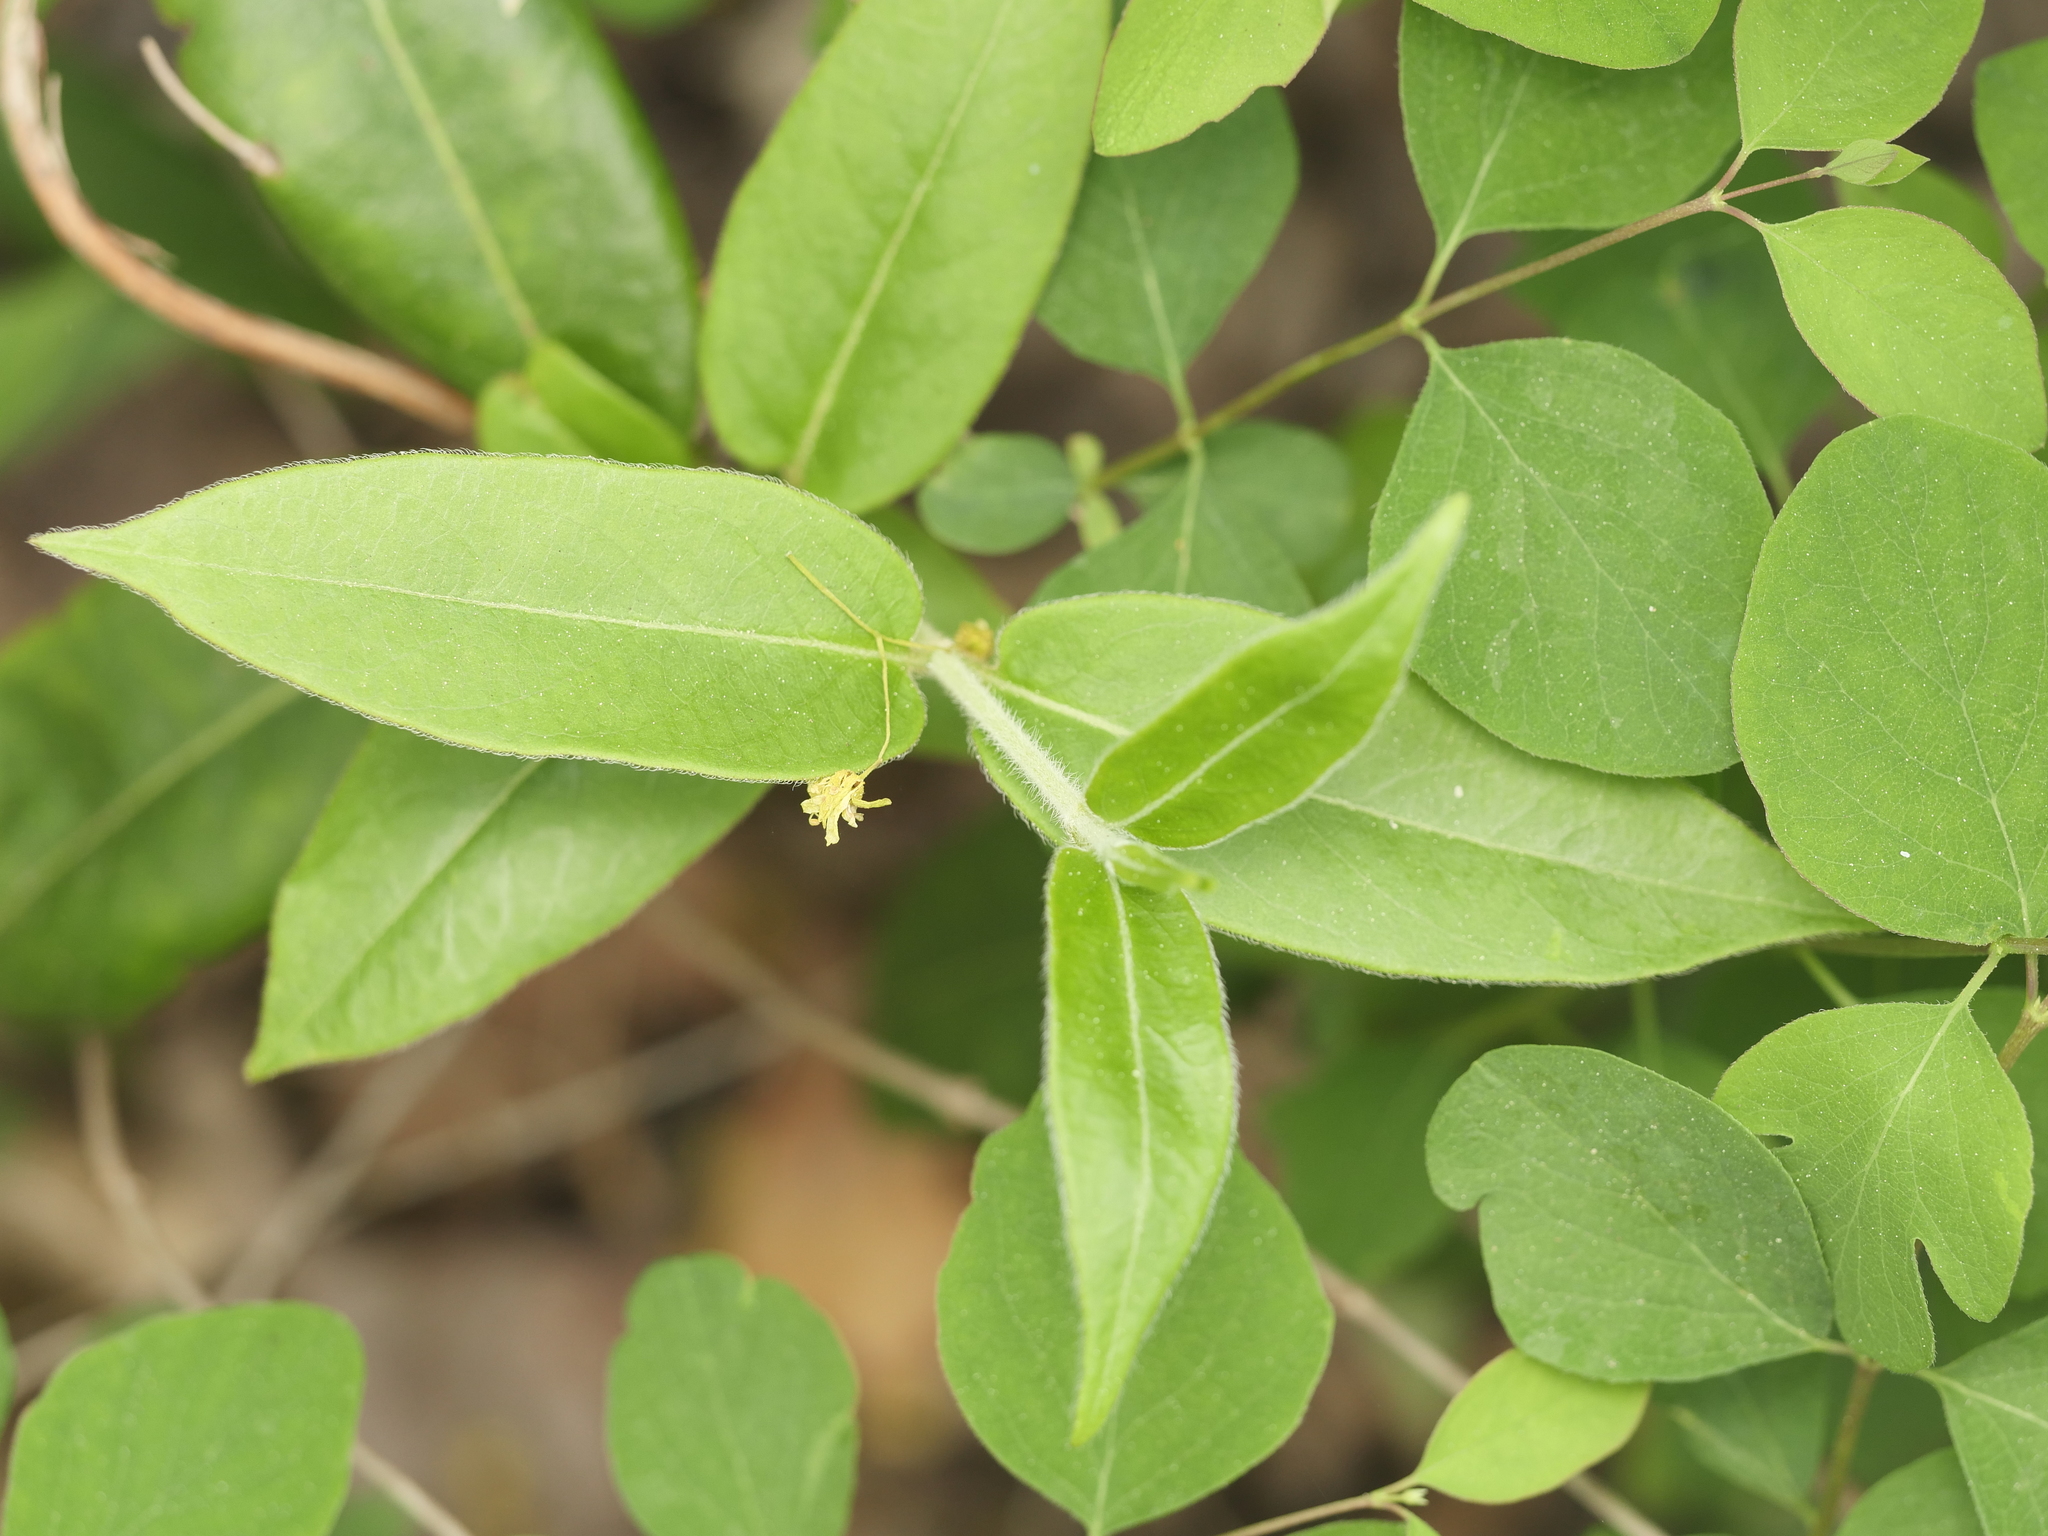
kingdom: Plantae
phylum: Tracheophyta
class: Magnoliopsida
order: Dipsacales
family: Caprifoliaceae
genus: Lonicera
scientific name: Lonicera acuminata
